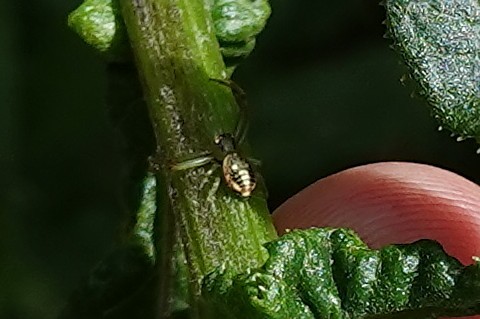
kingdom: Animalia
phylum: Arthropoda
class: Arachnida
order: Araneae
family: Thomisidae
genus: Diaea
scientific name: Diaea ambara
